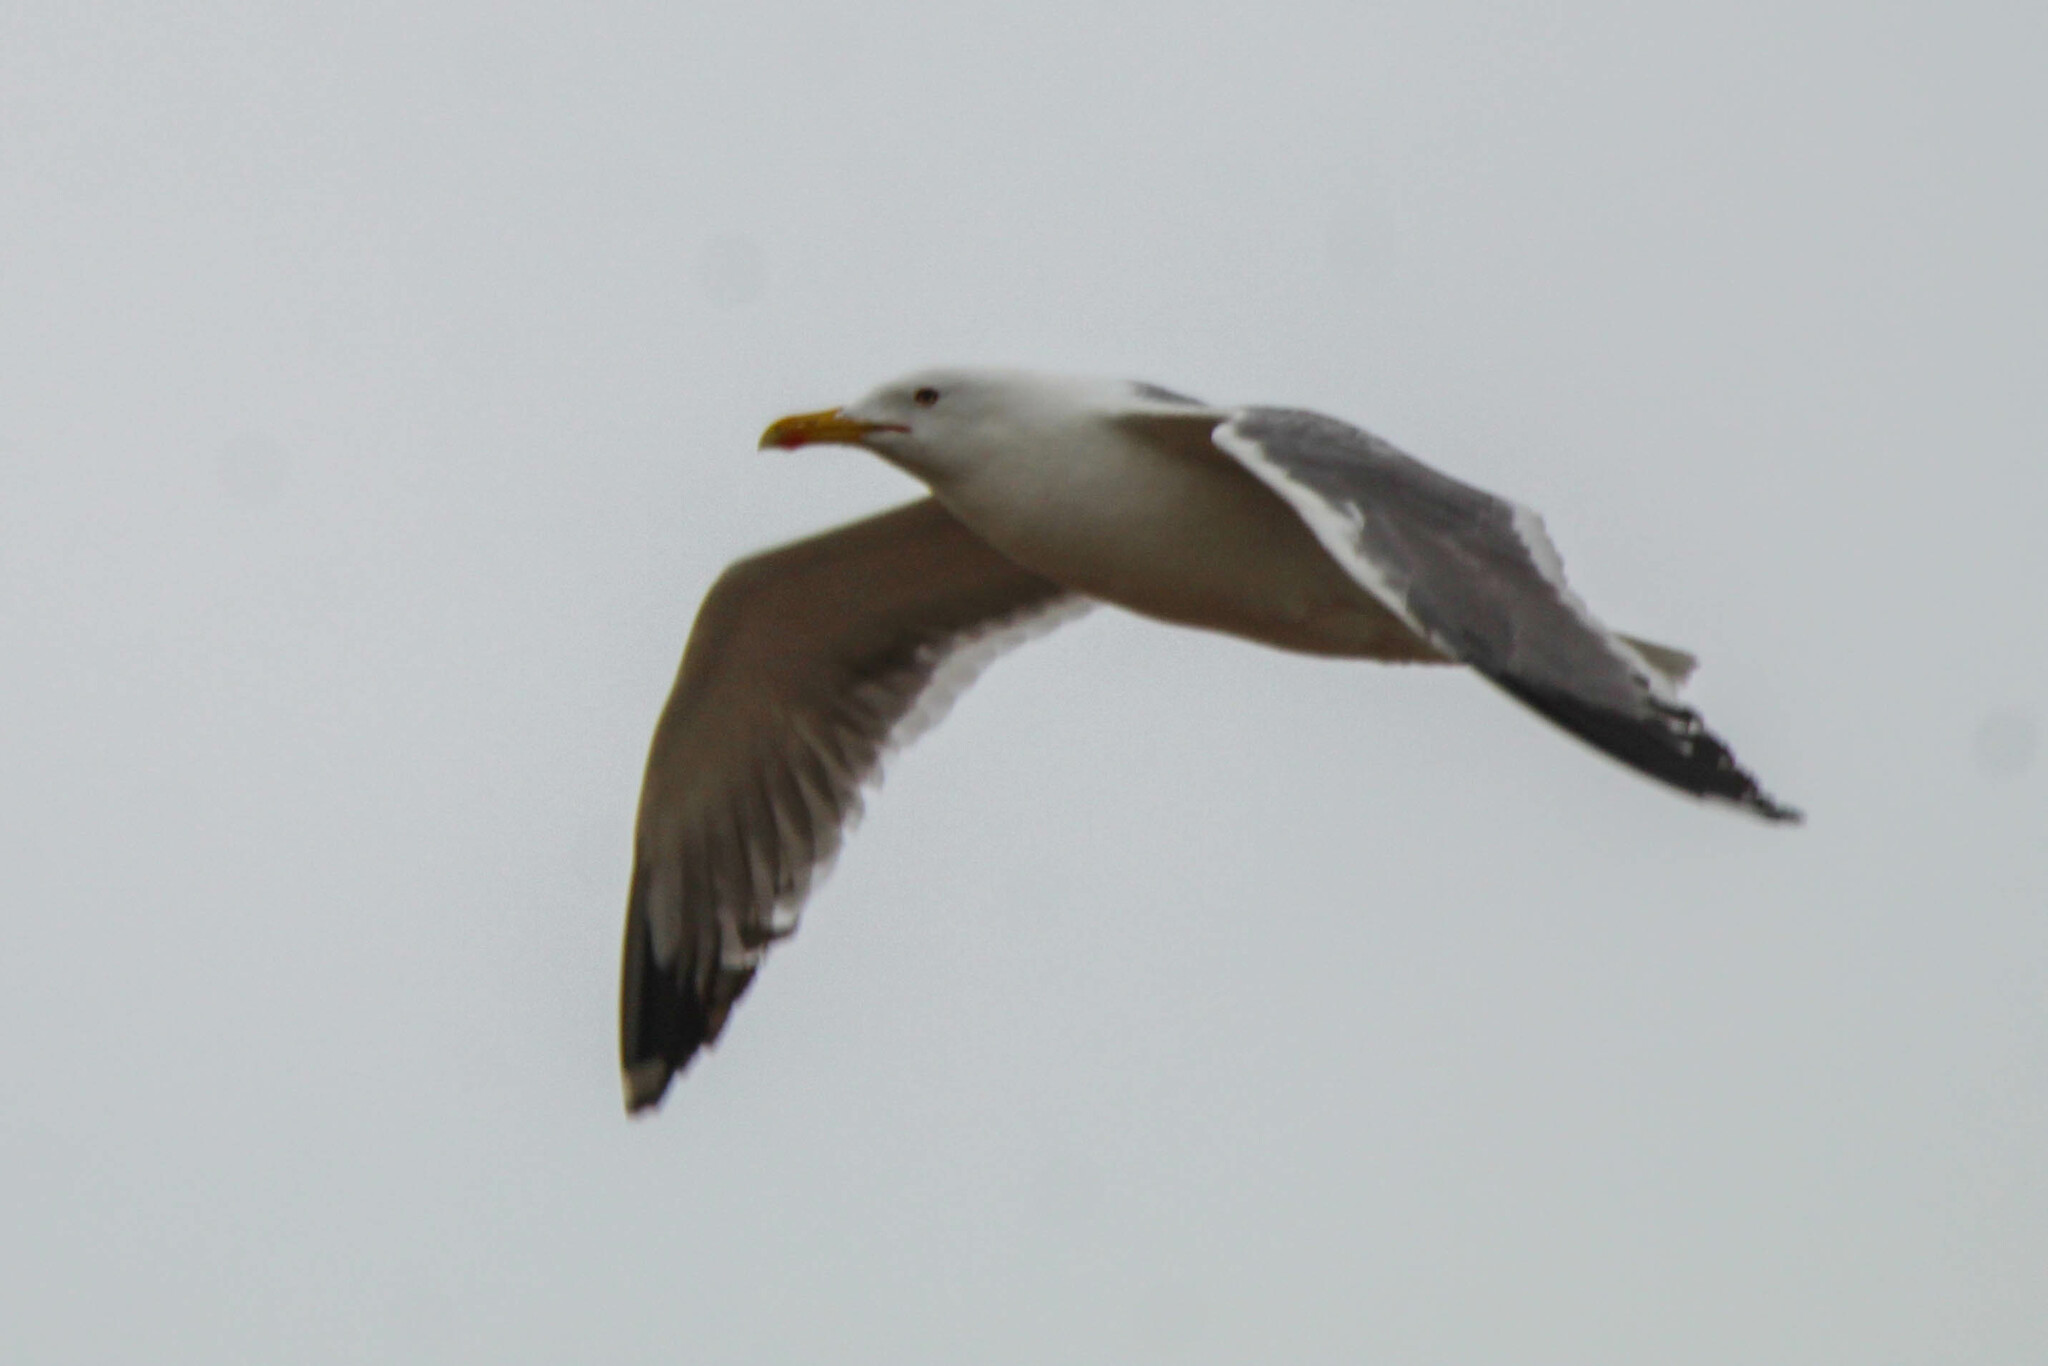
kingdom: Animalia
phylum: Chordata
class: Aves
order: Charadriiformes
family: Laridae
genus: Larus
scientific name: Larus fuscus
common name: Lesser black-backed gull
